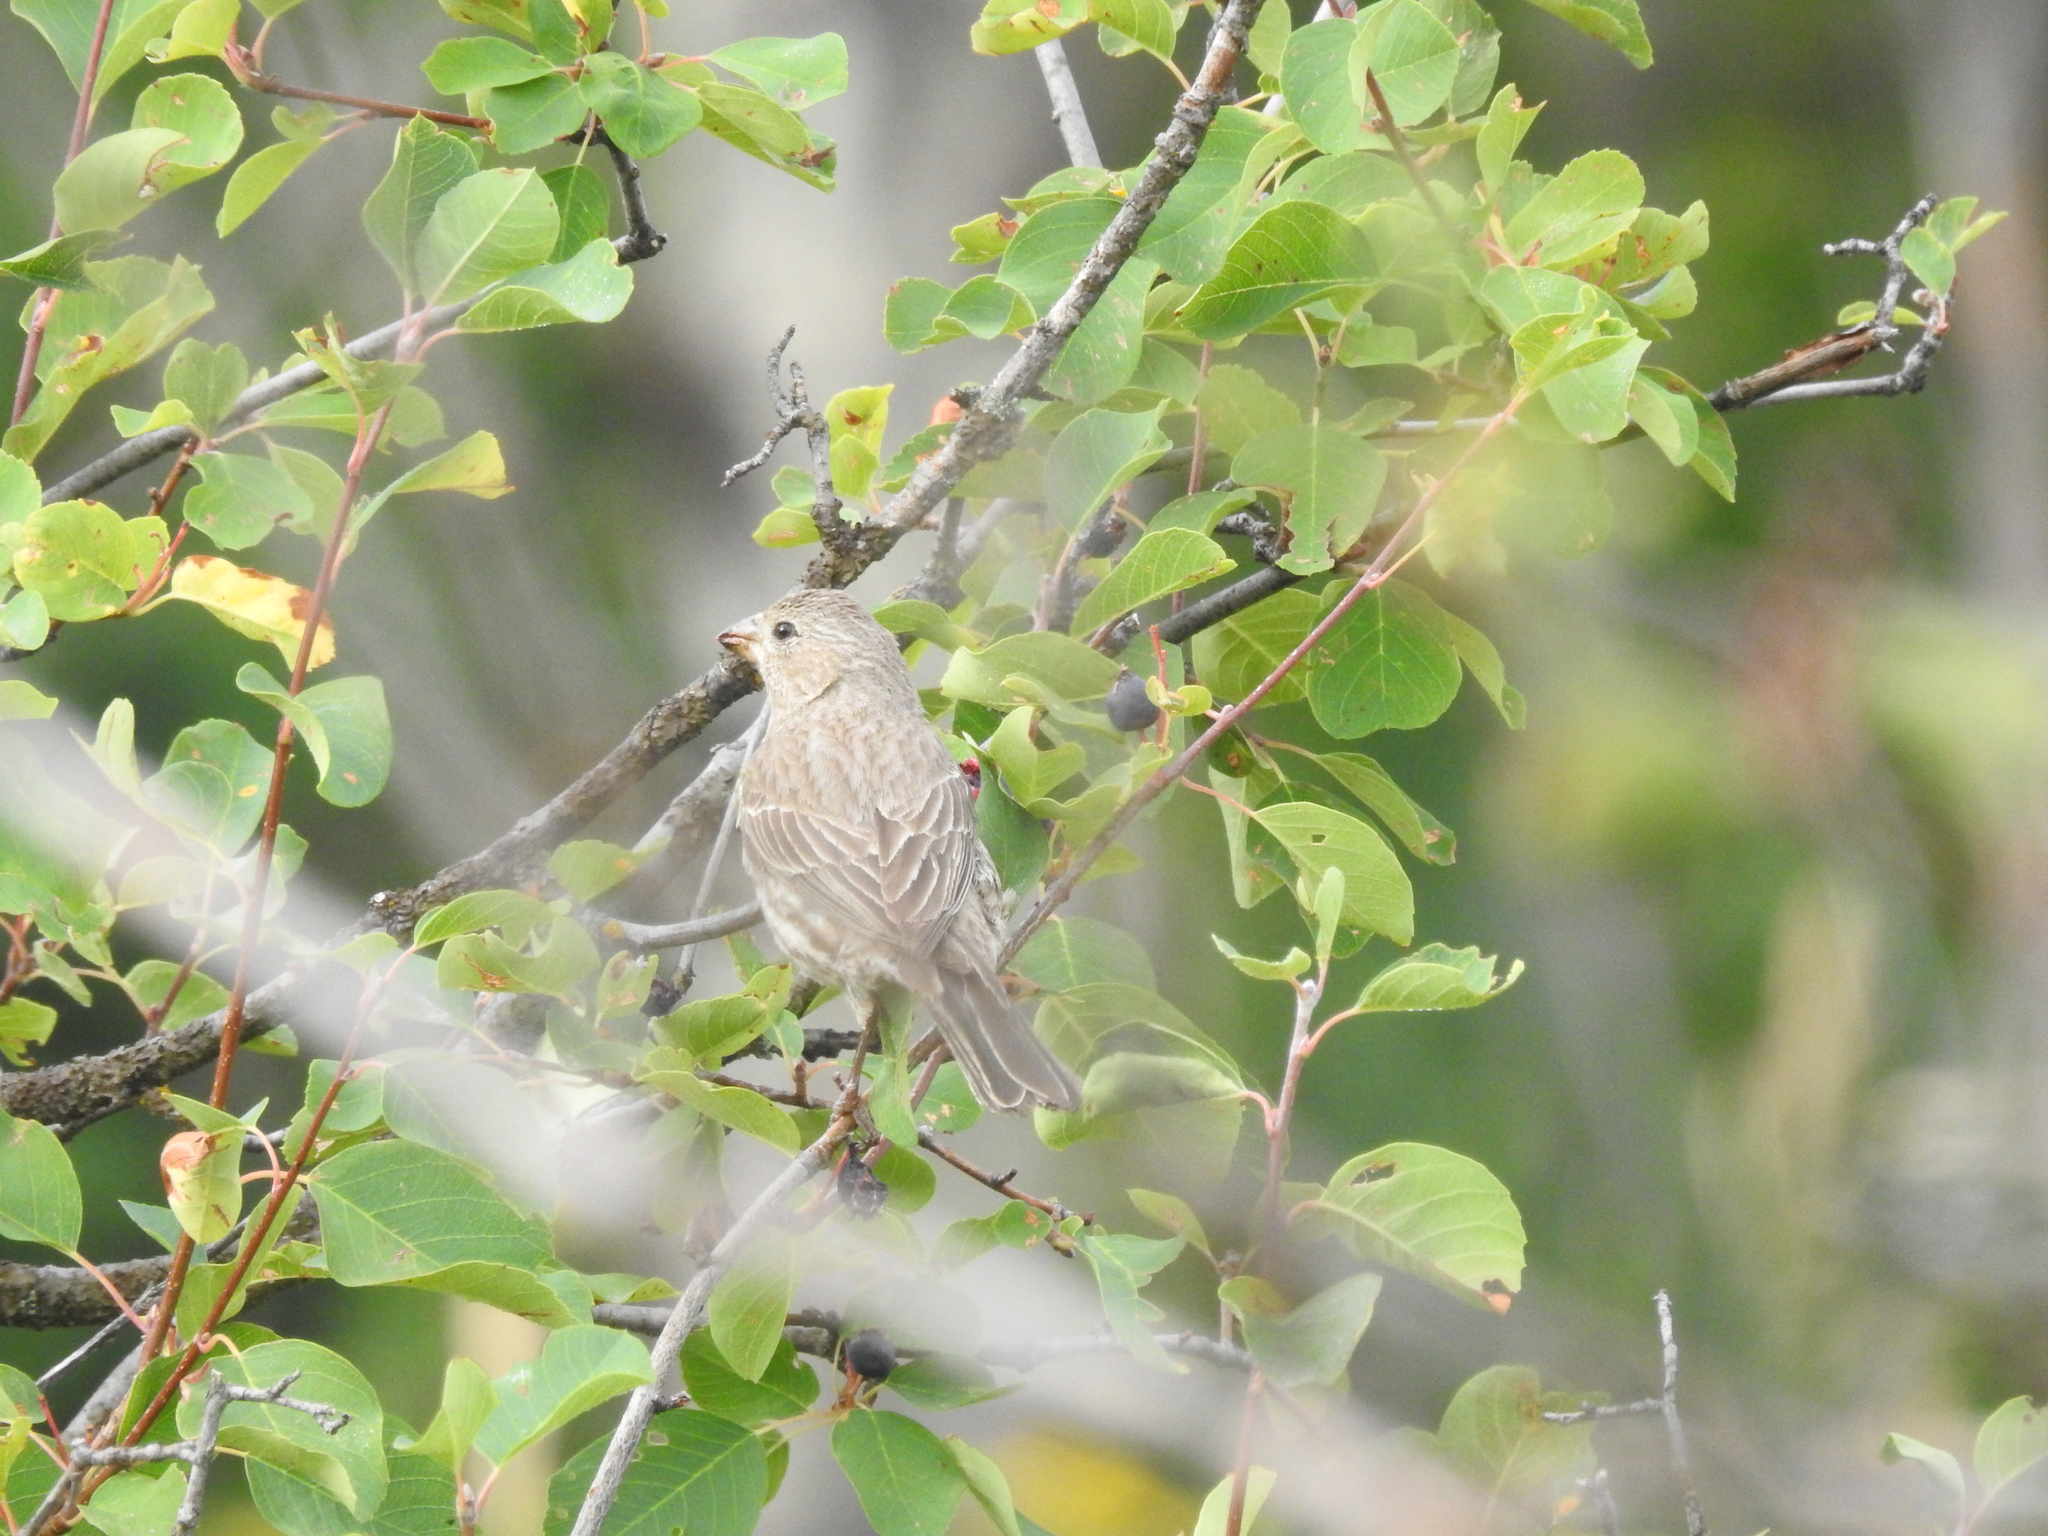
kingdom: Animalia
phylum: Chordata
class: Aves
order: Passeriformes
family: Fringillidae
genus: Haemorhous
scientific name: Haemorhous mexicanus
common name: House finch
